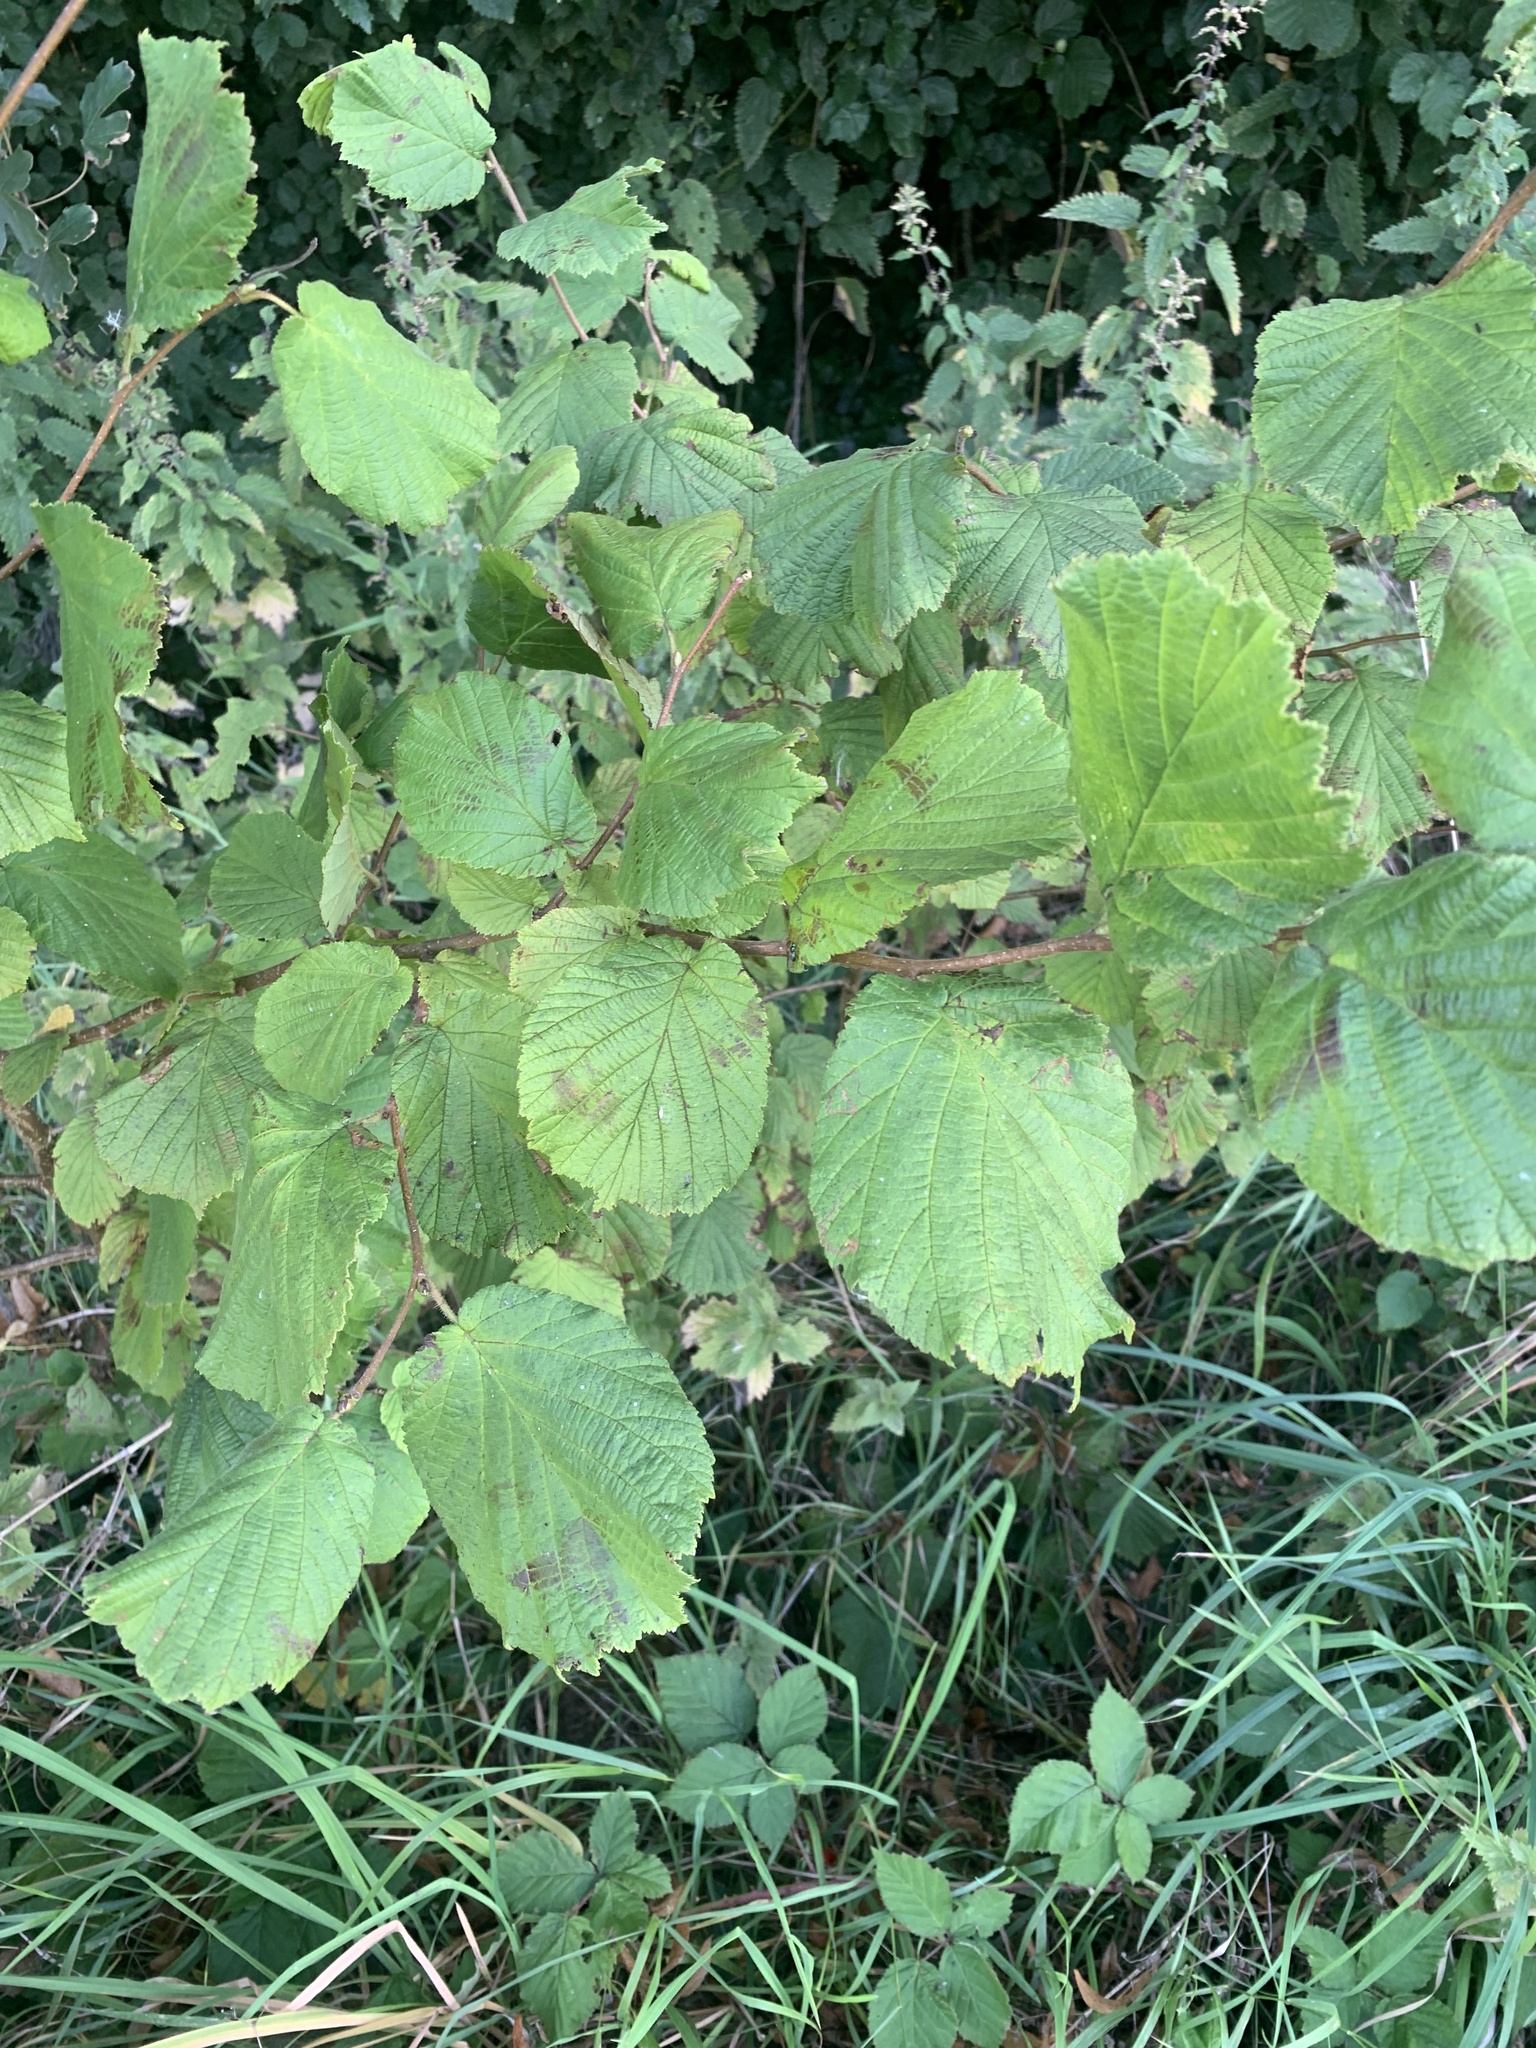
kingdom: Plantae
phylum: Tracheophyta
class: Magnoliopsida
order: Fagales
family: Betulaceae
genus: Corylus
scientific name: Corylus avellana
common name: European hazel
